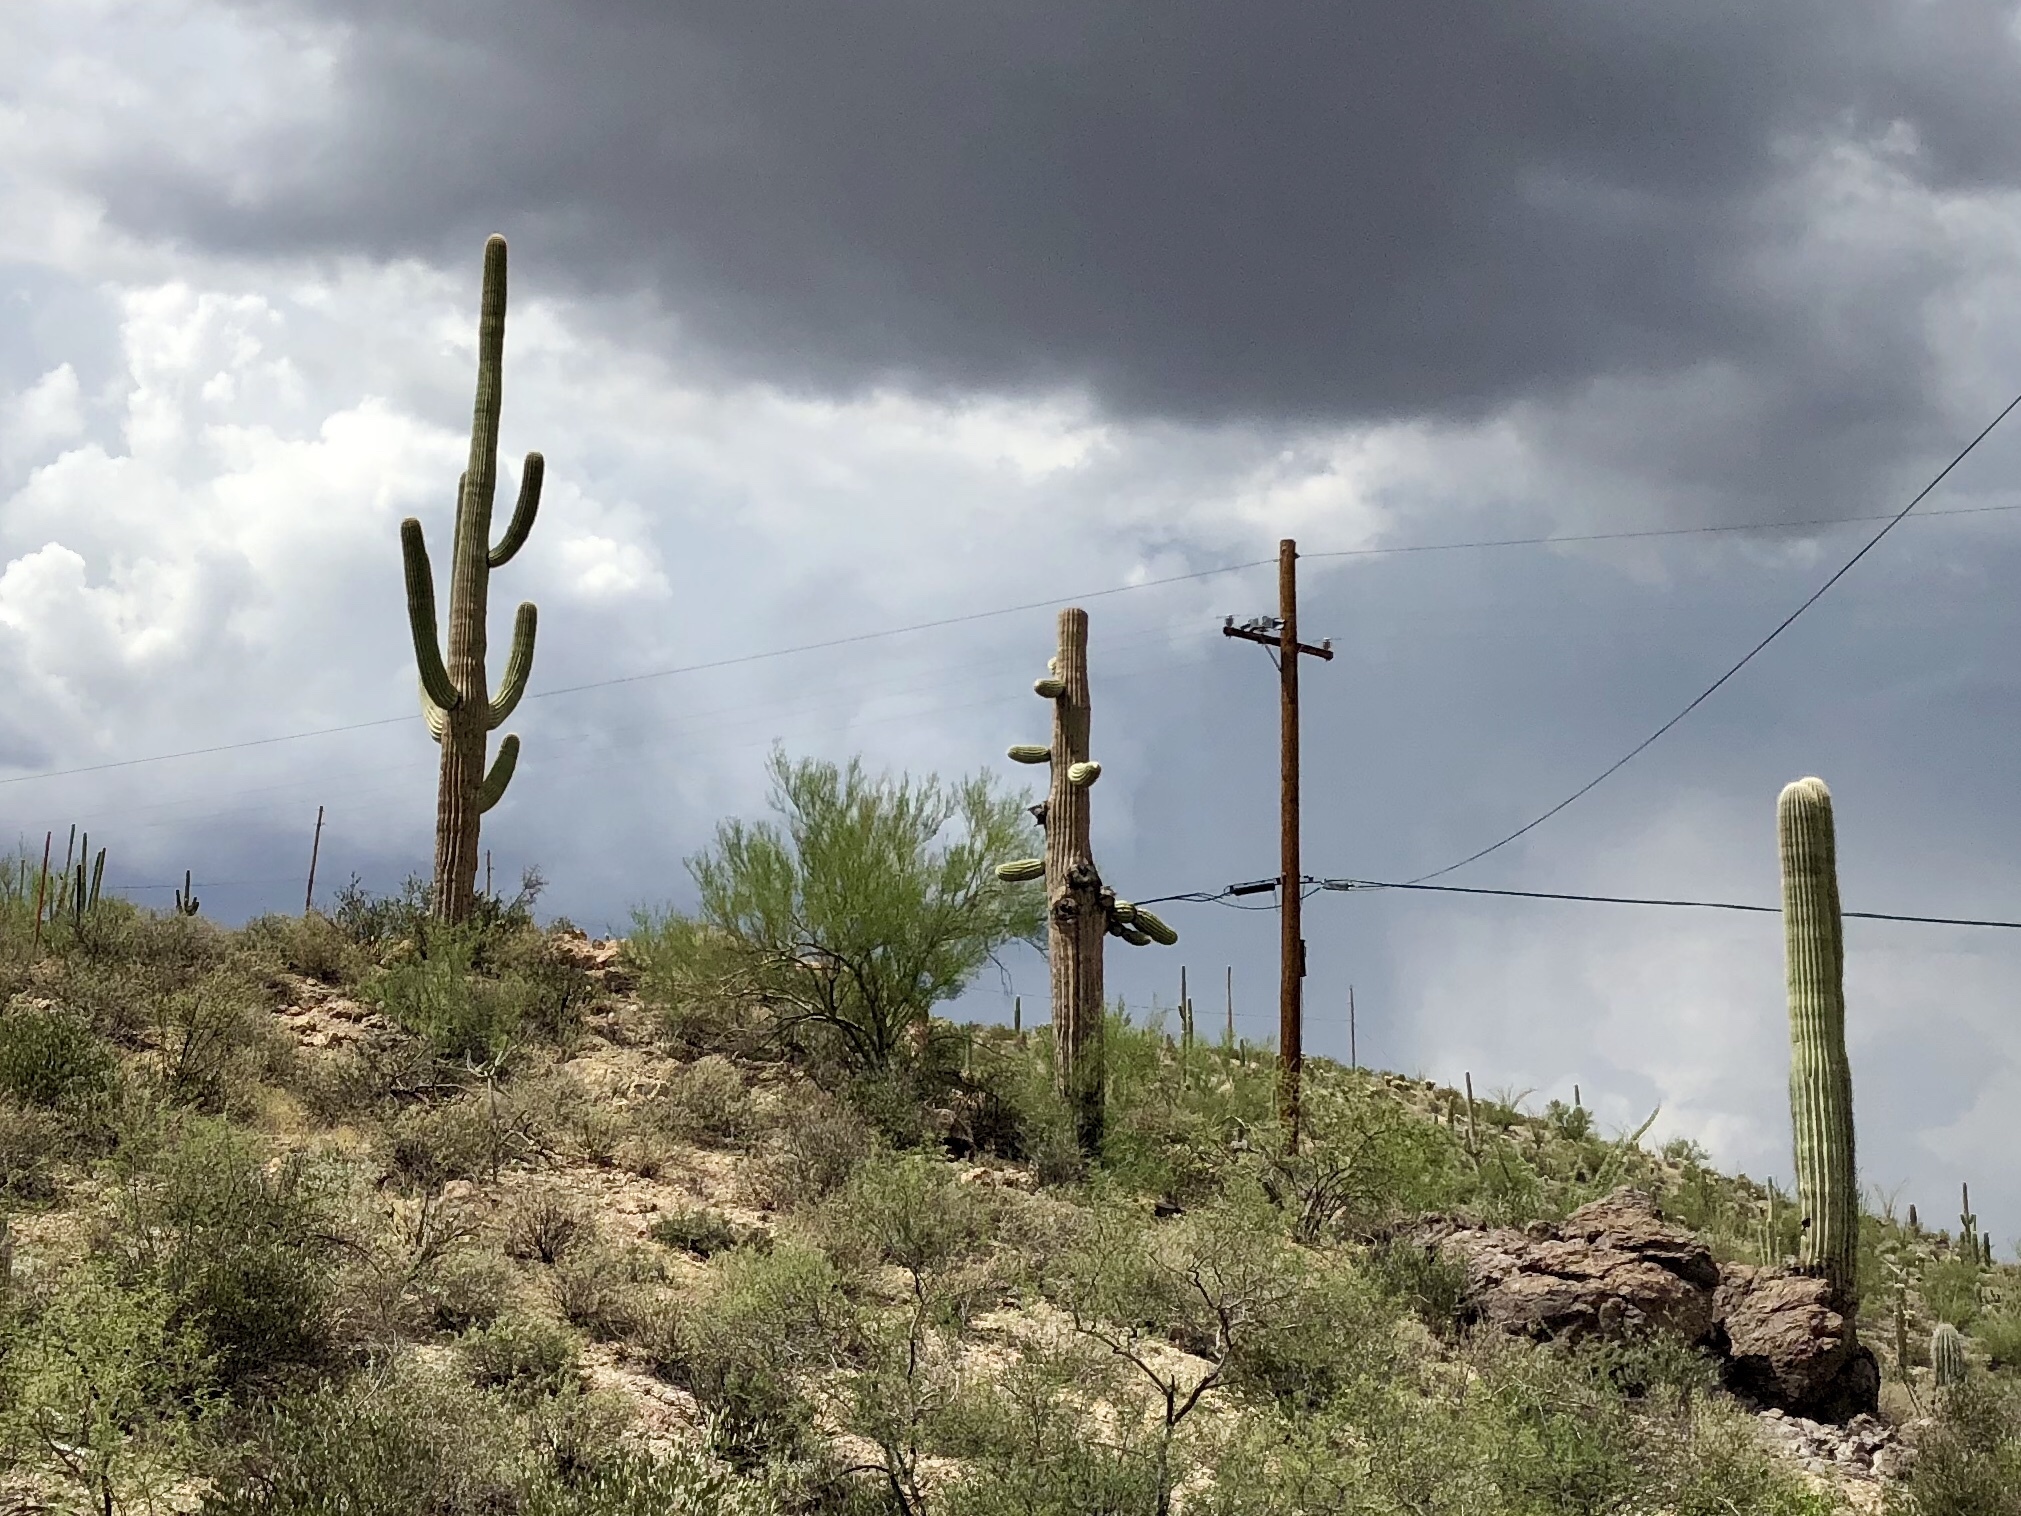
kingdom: Plantae
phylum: Tracheophyta
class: Magnoliopsida
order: Caryophyllales
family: Cactaceae
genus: Carnegiea
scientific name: Carnegiea gigantea
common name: Saguaro
